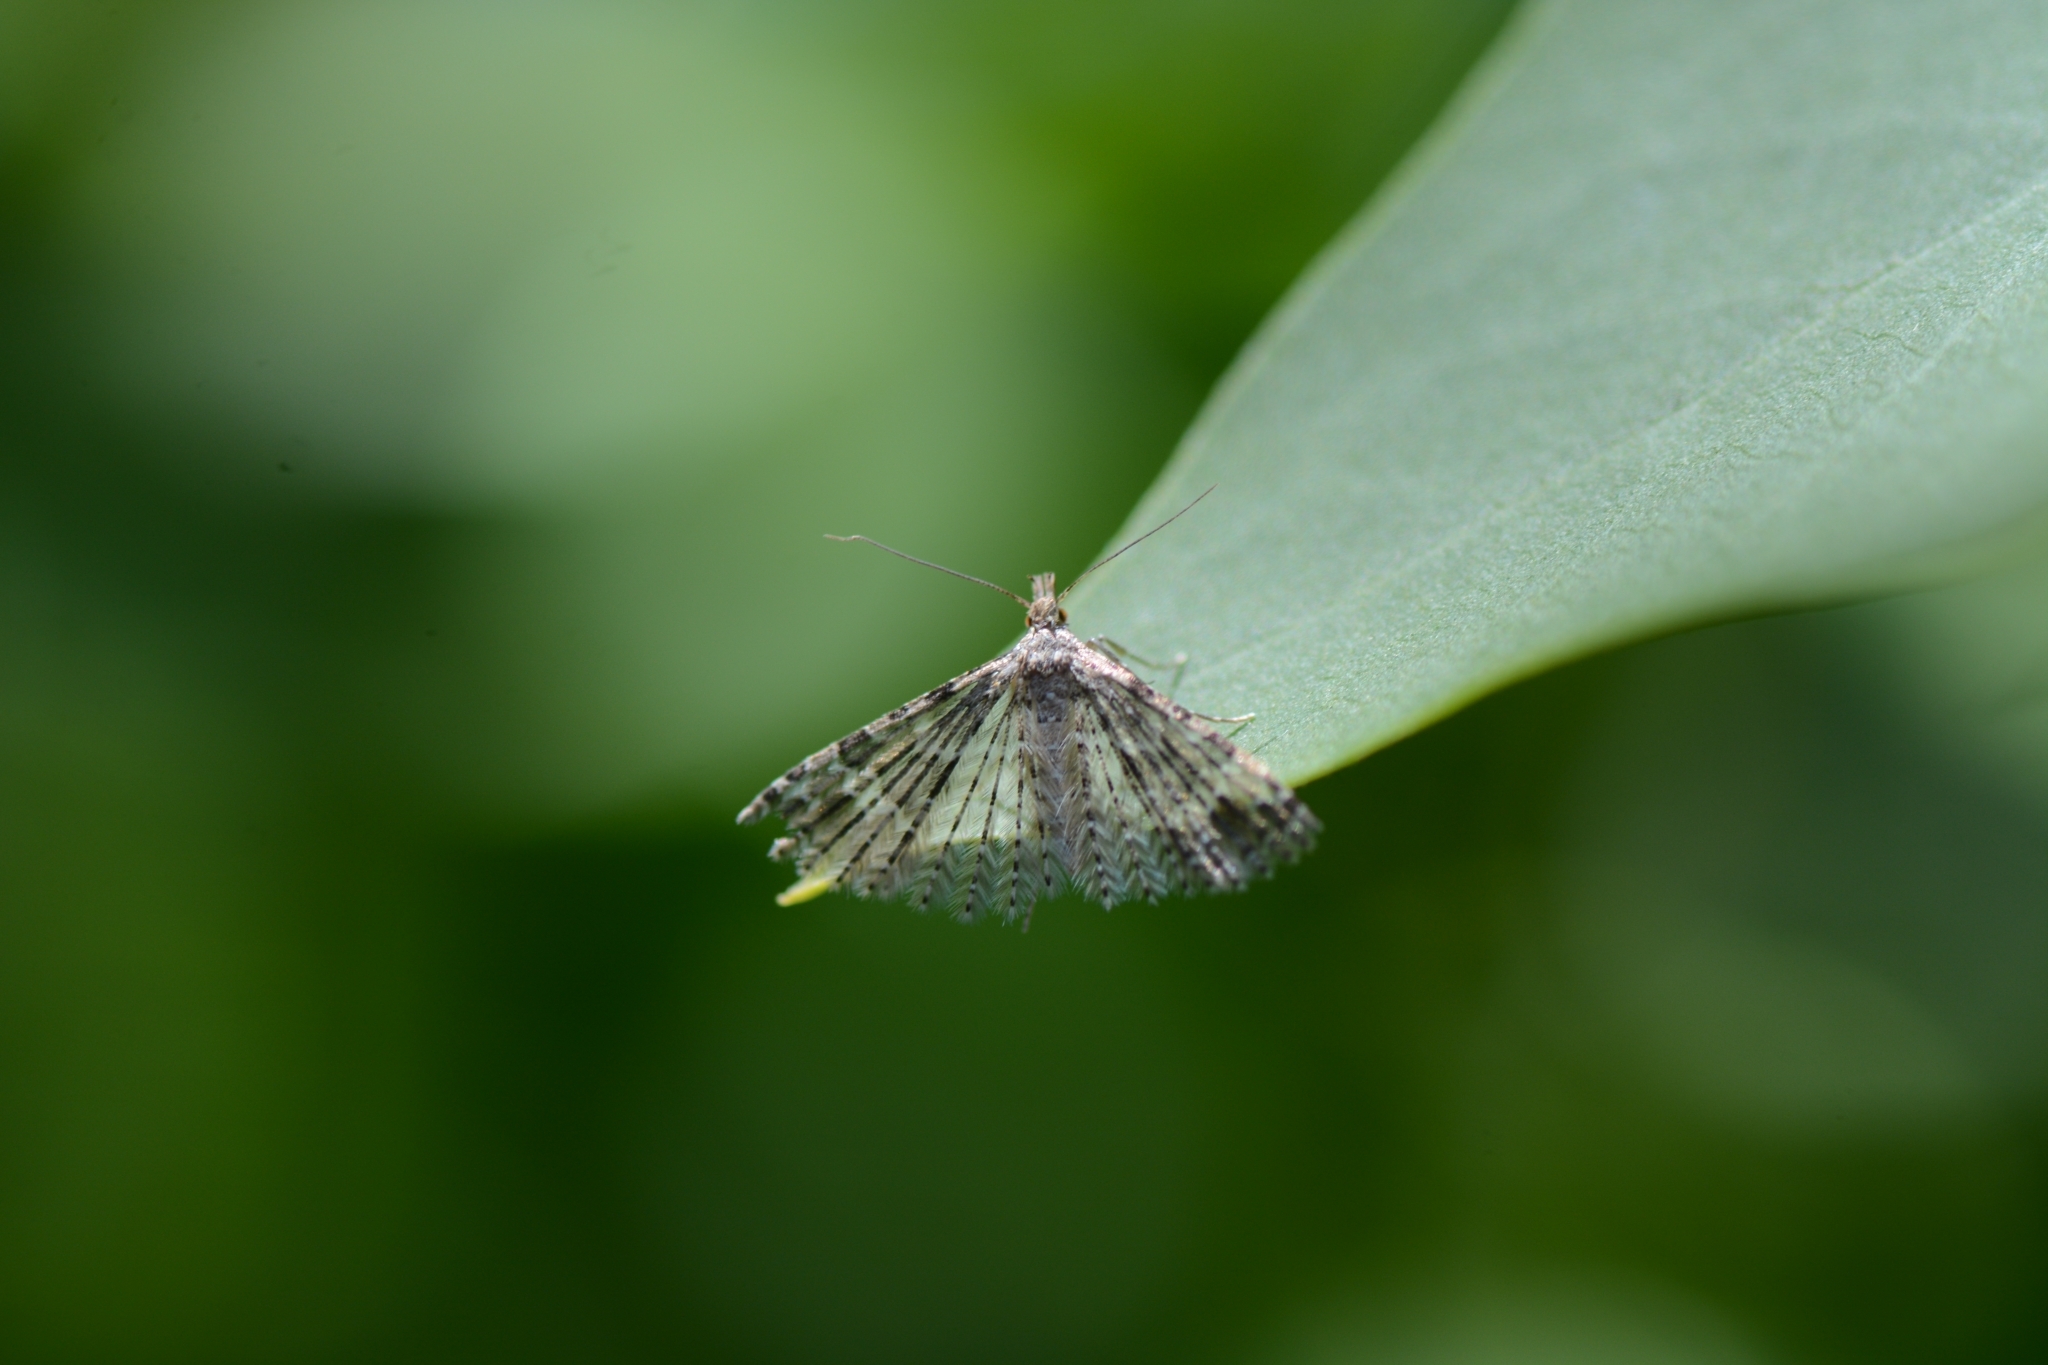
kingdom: Animalia
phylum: Arthropoda
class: Insecta
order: Lepidoptera
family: Alucitidae
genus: Alucita
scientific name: Alucita hexadactyla
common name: Twenty-plume moth
